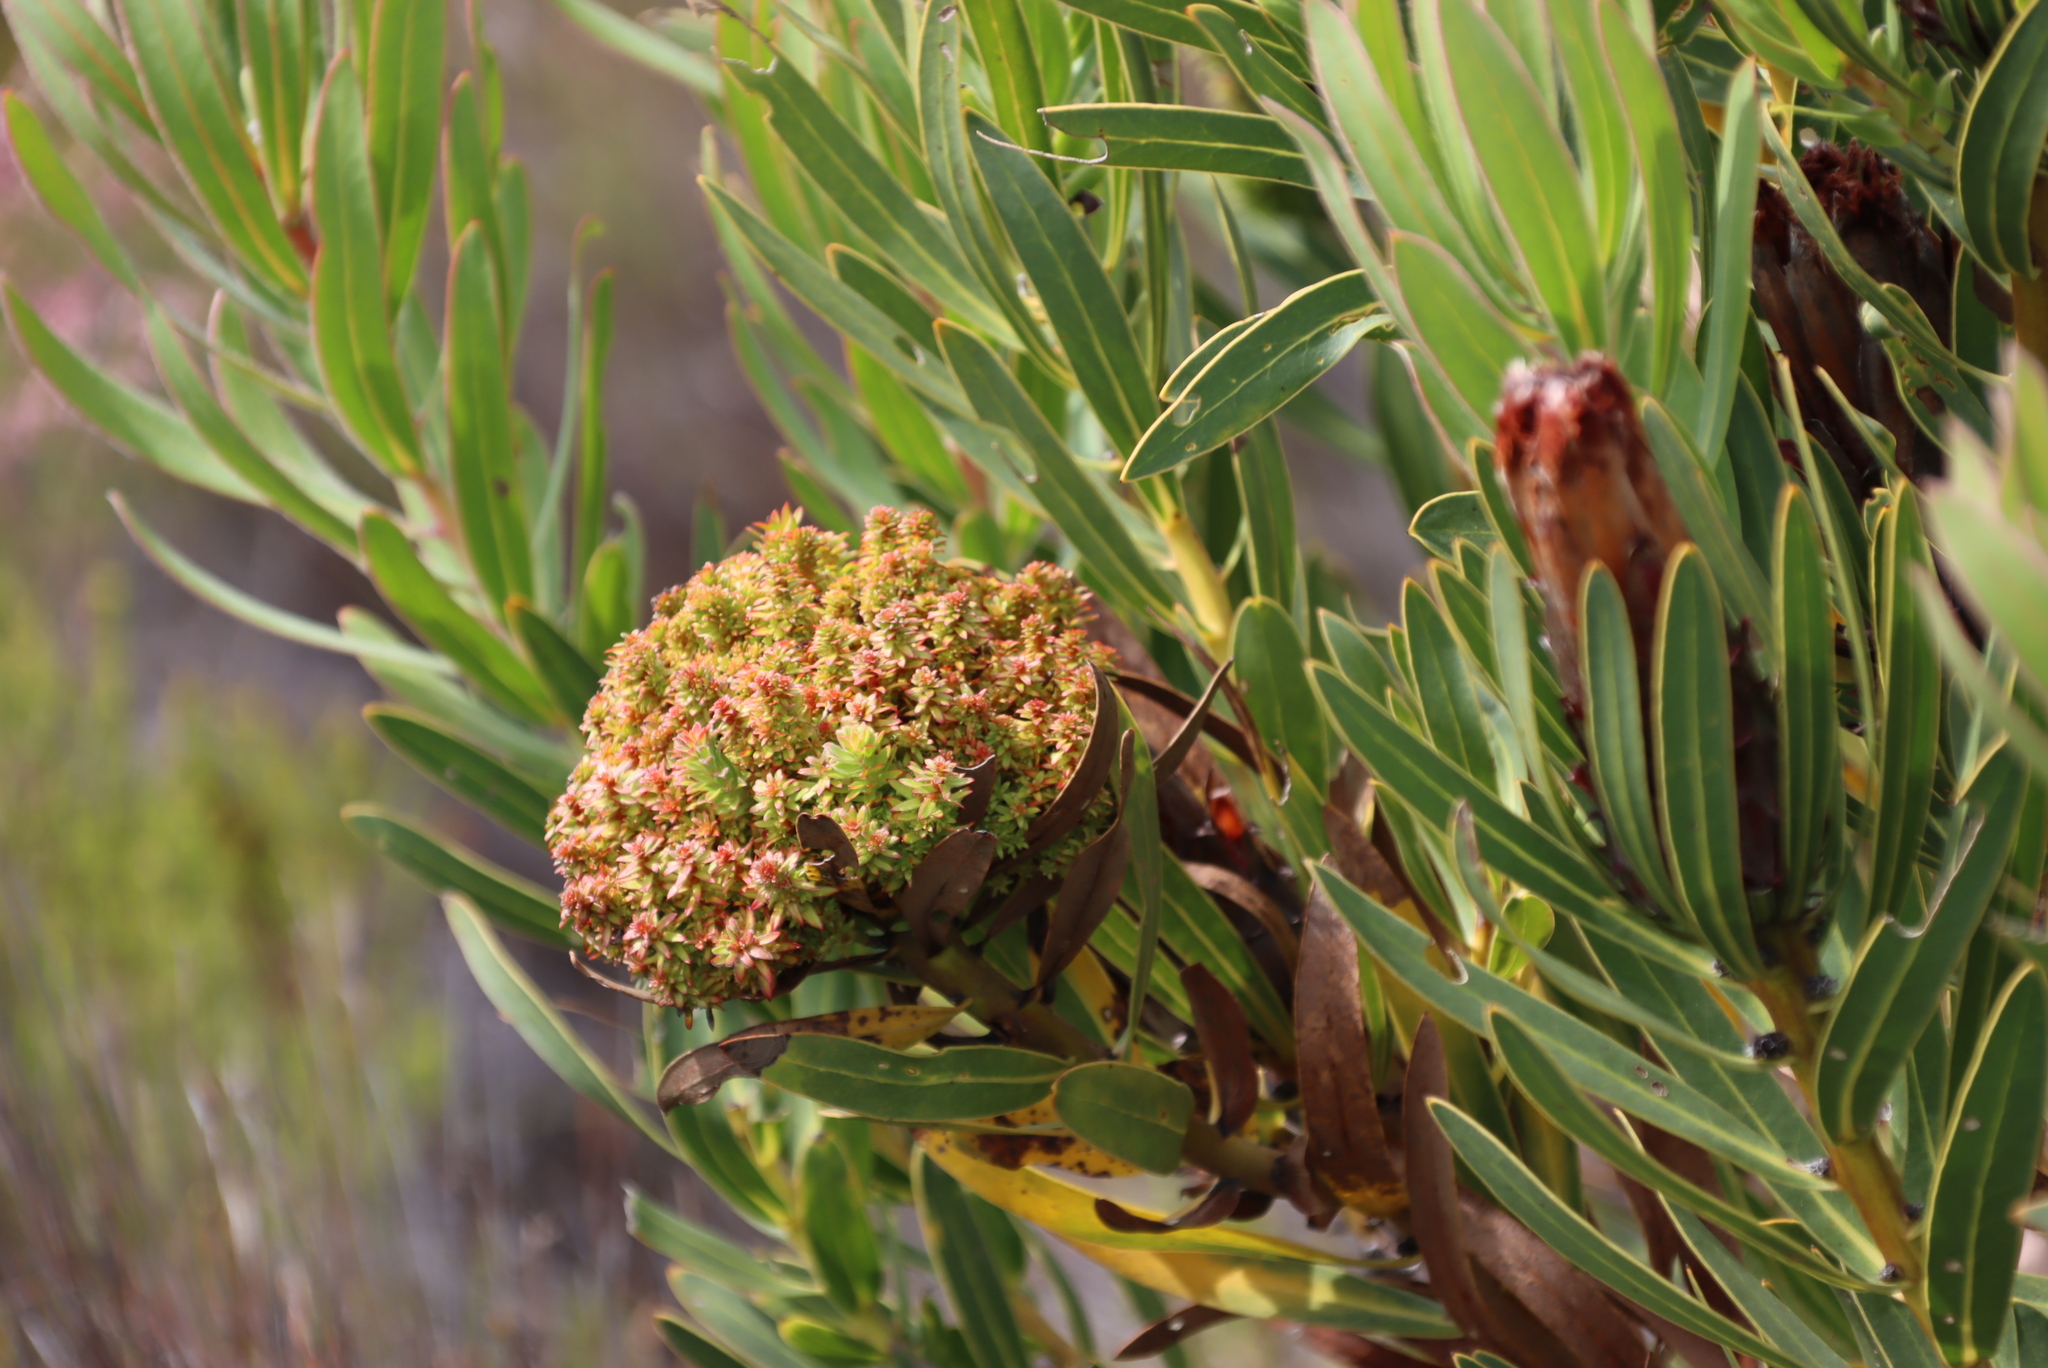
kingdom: Bacteria
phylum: Firmicutes
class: Bacilli
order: Acholeplasmatales
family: Acholeplasmataceae
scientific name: Acholeplasmataceae
